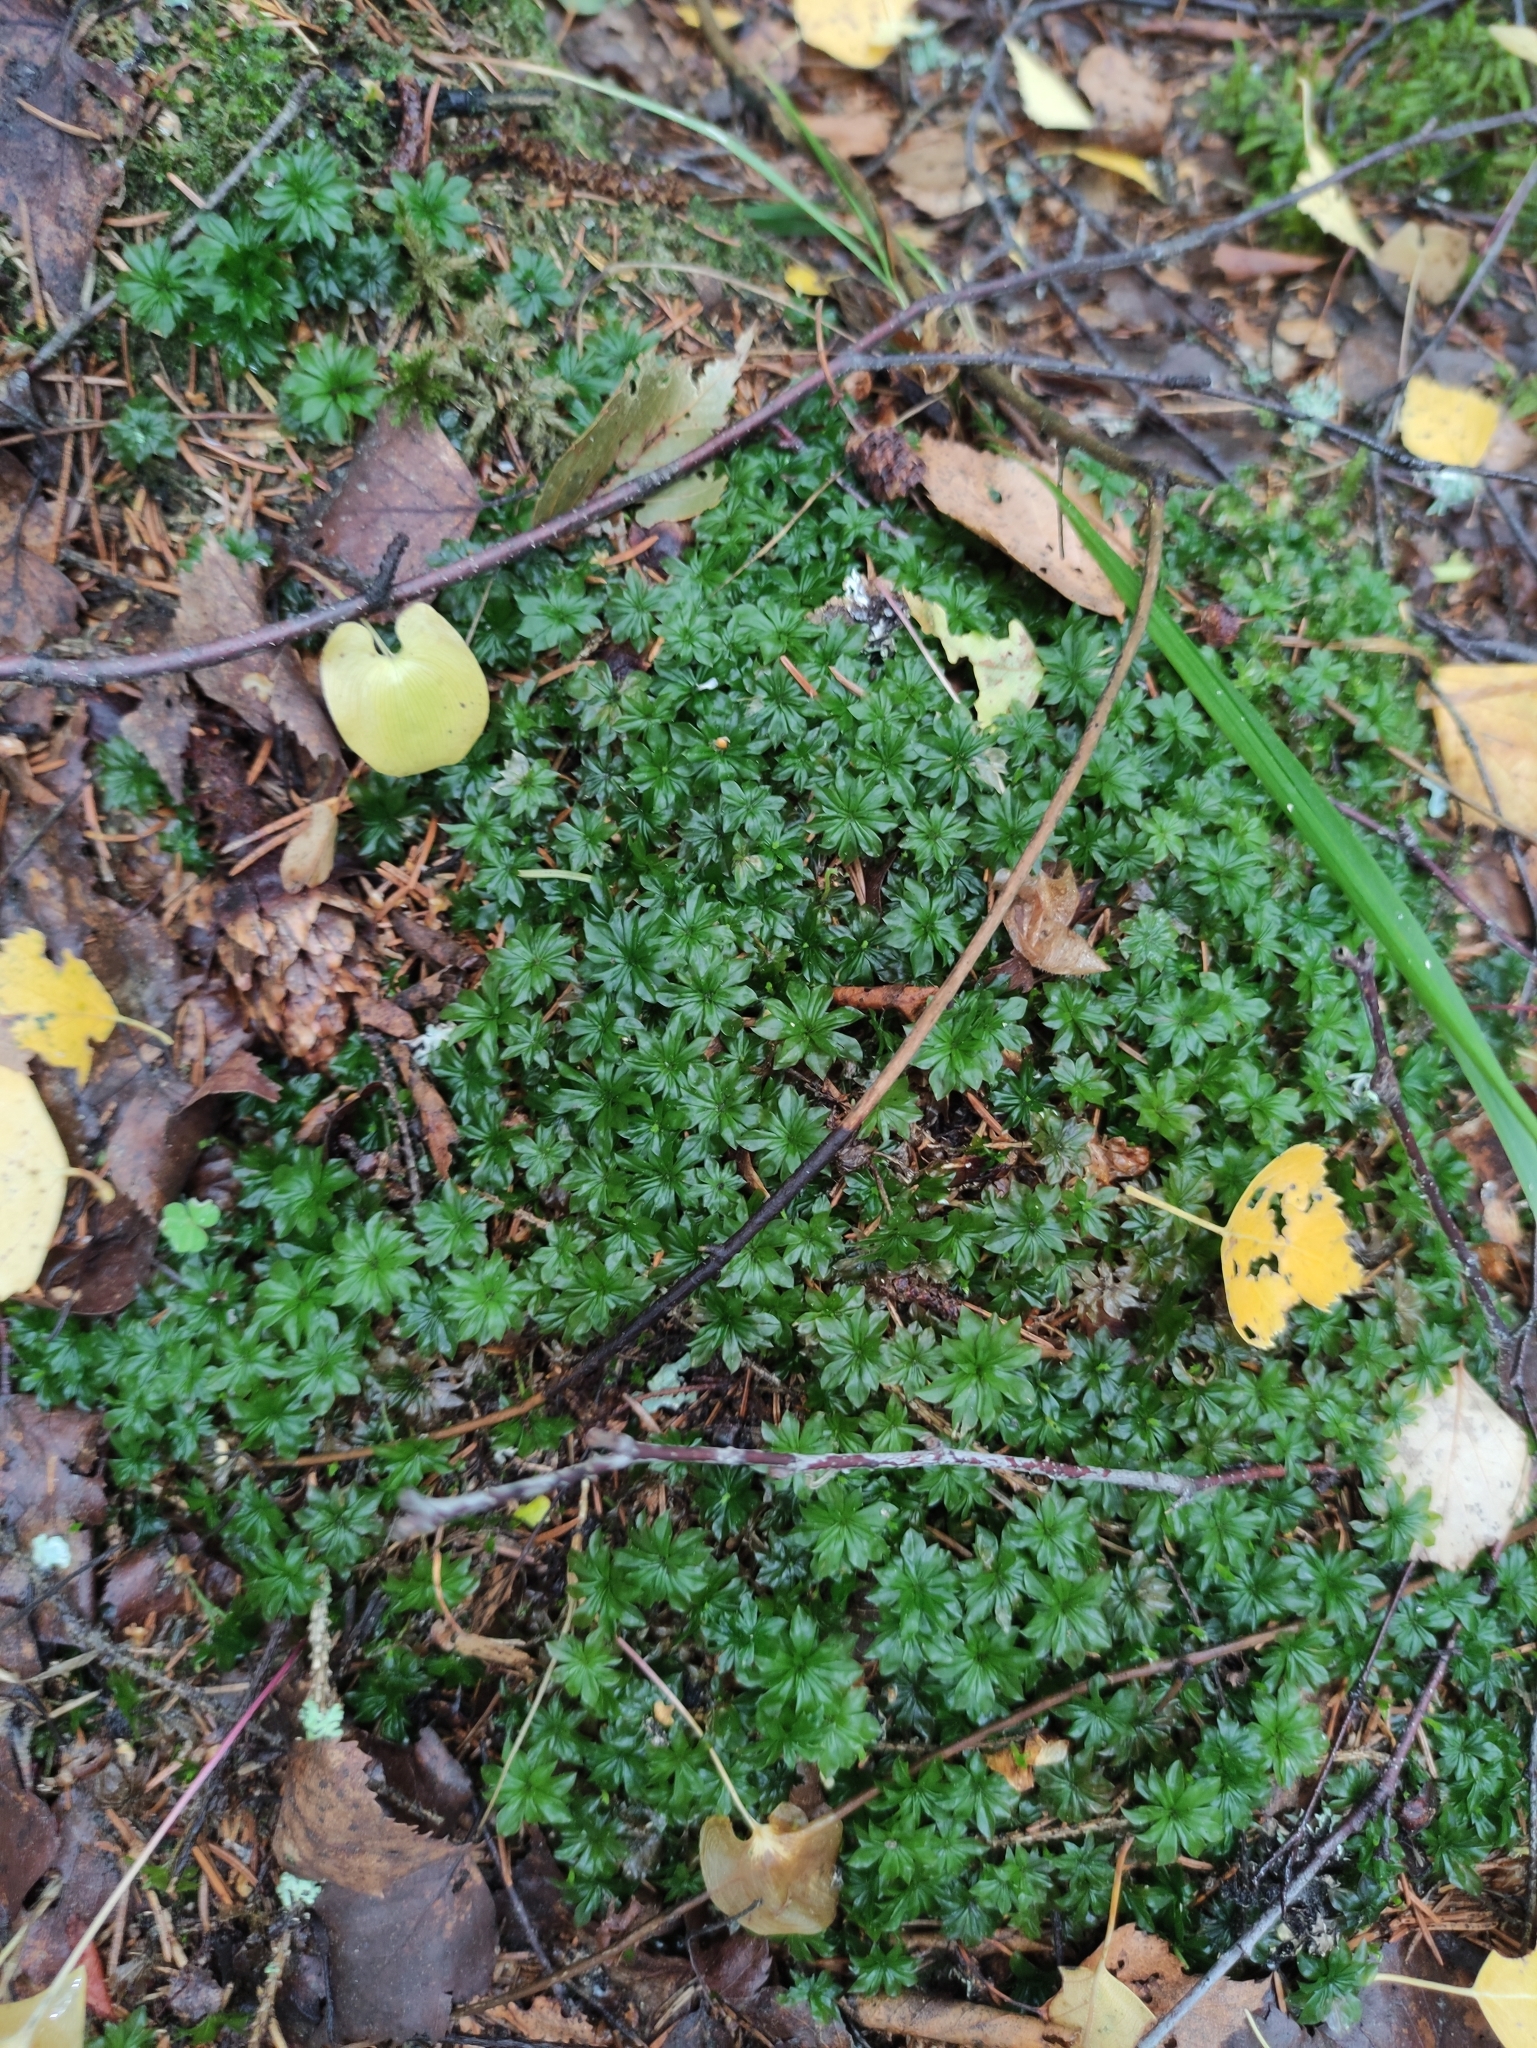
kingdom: Plantae
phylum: Bryophyta
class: Bryopsida
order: Bryales
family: Bryaceae
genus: Rhodobryum
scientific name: Rhodobryum roseum
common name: Rose-moss
